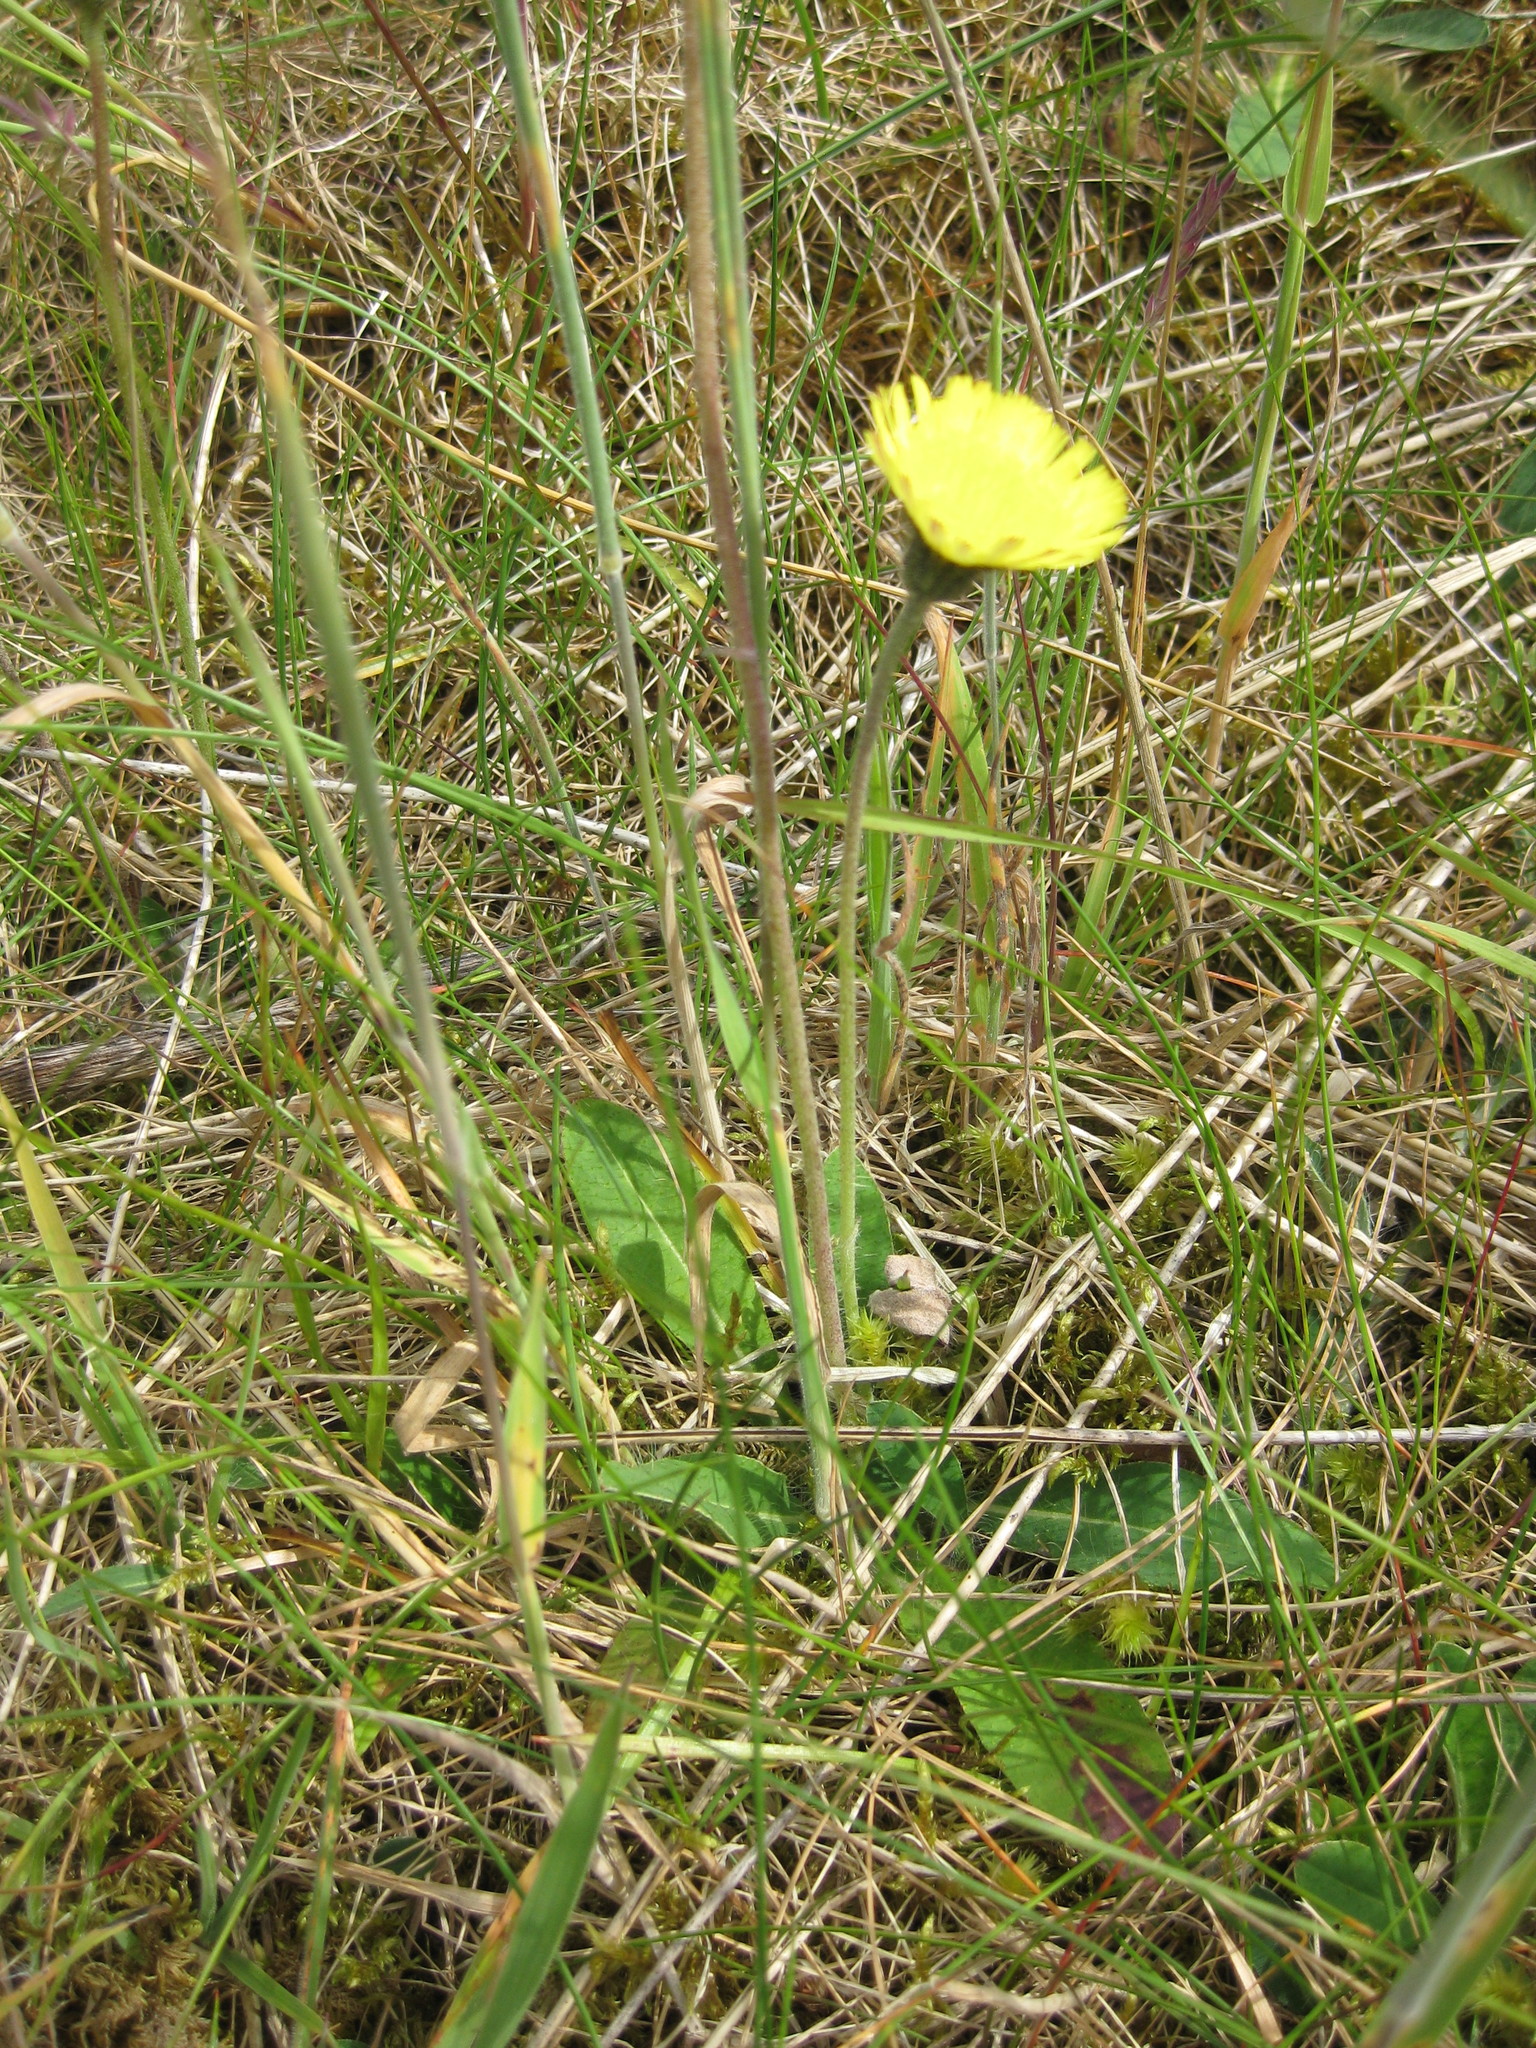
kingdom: Plantae
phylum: Tracheophyta
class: Magnoliopsida
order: Asterales
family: Asteraceae
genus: Pilosella
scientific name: Pilosella officinarum
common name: Mouse-ear hawkweed
